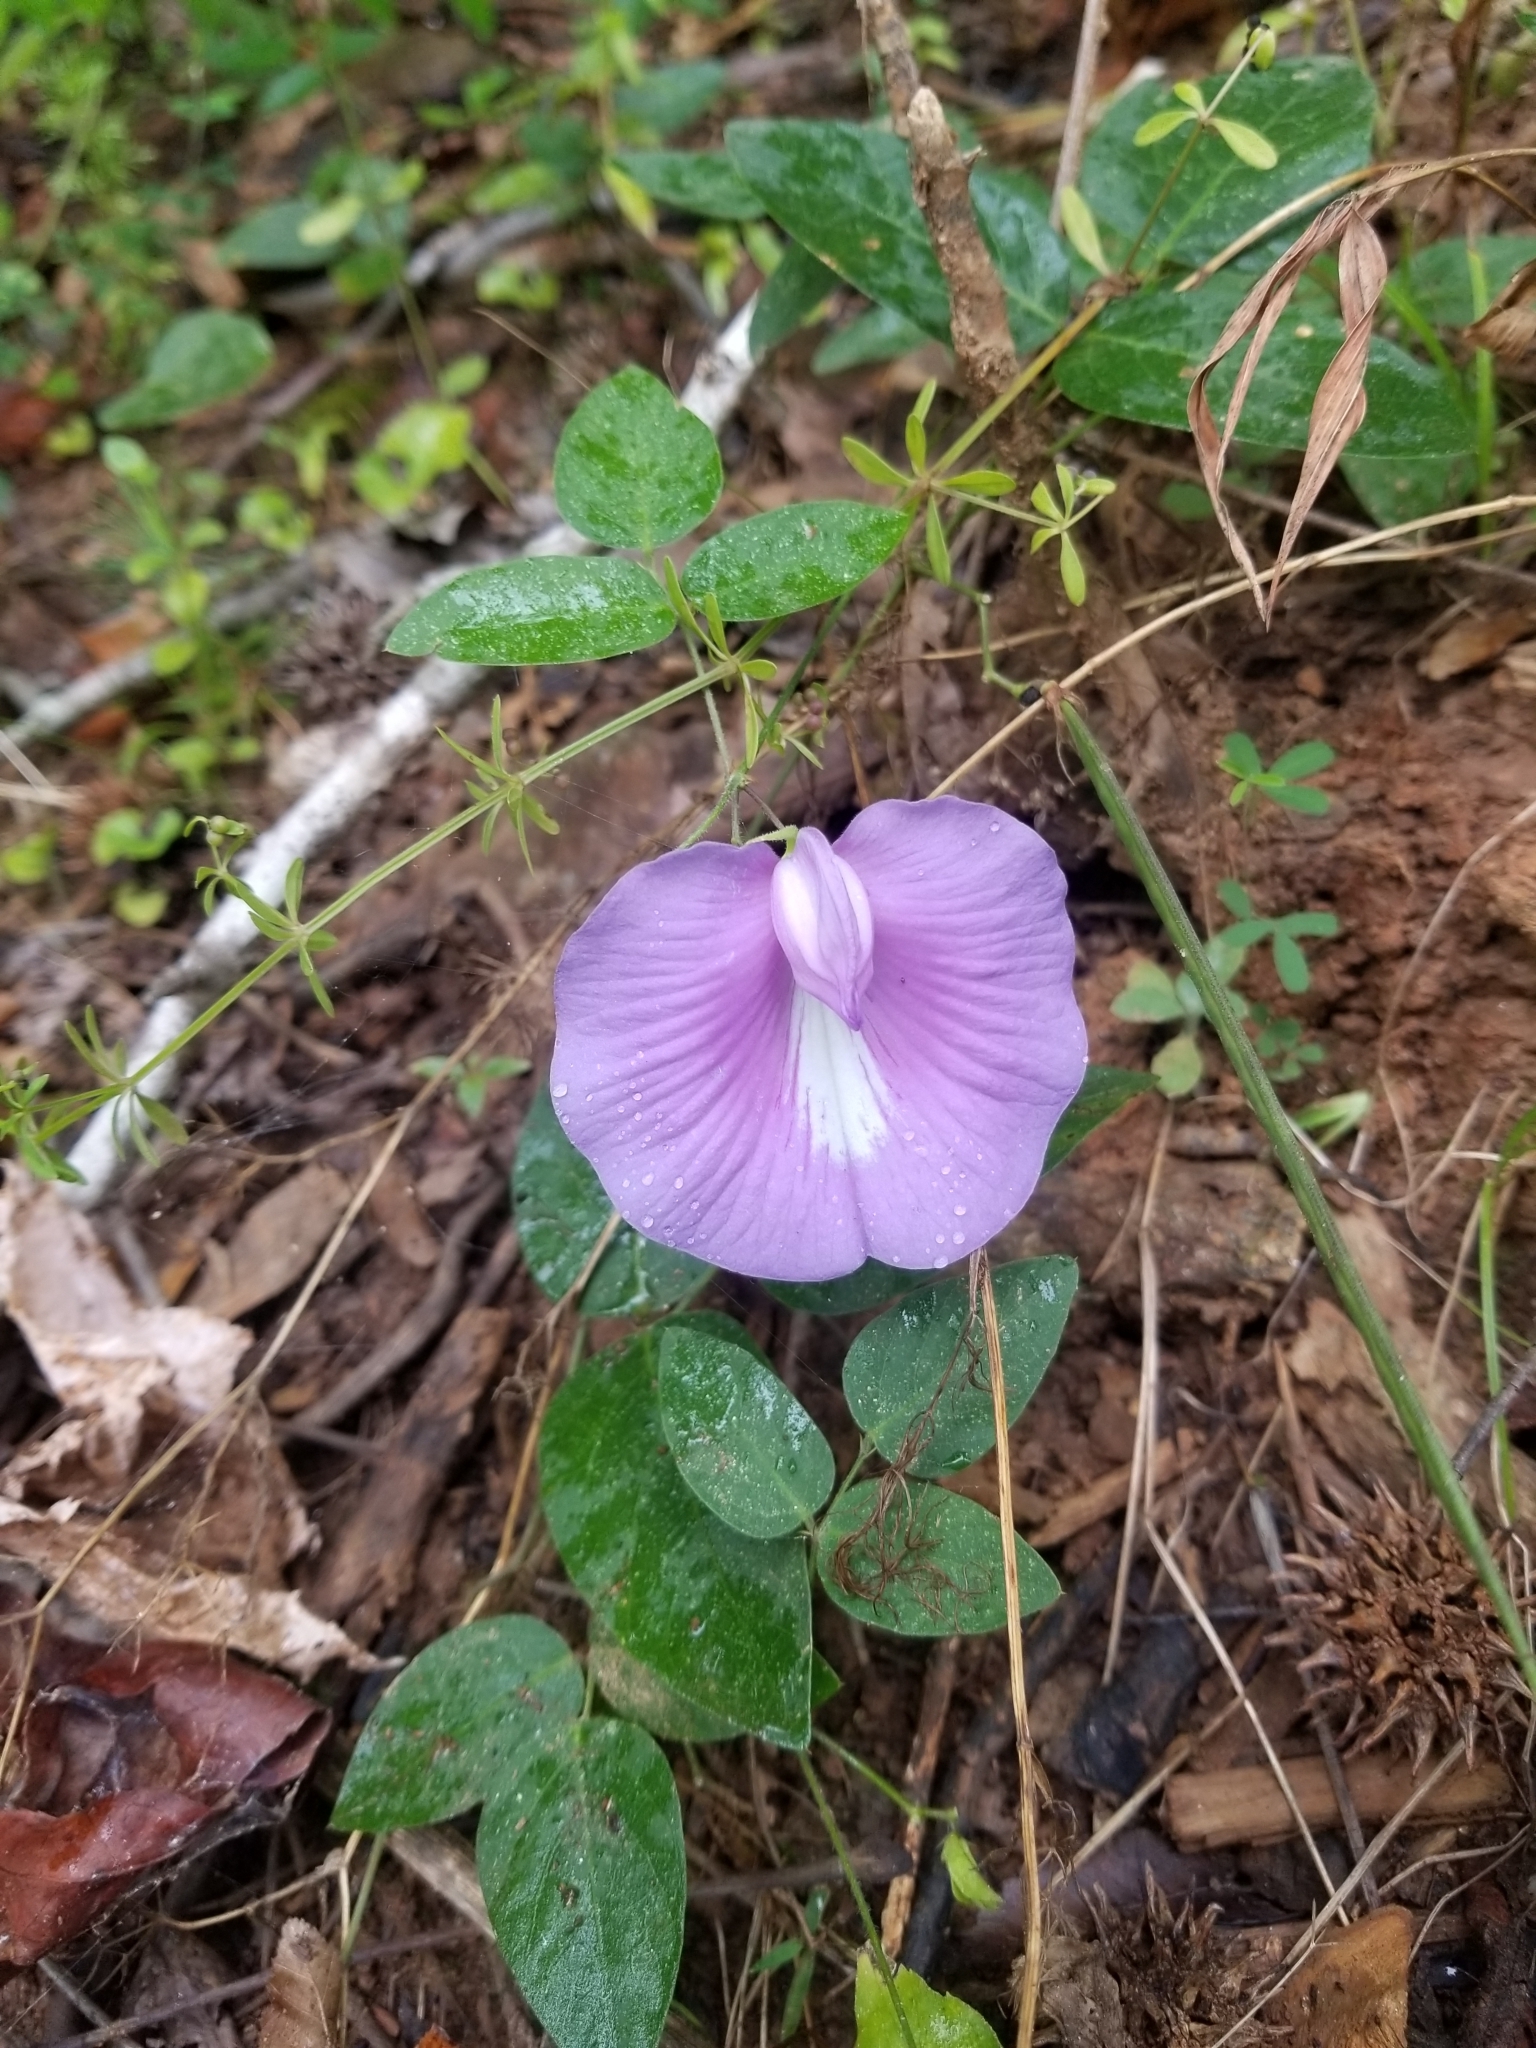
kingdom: Plantae
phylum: Tracheophyta
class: Magnoliopsida
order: Fabales
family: Fabaceae
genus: Centrosema
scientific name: Centrosema virginianum
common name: Butterfly-pea
